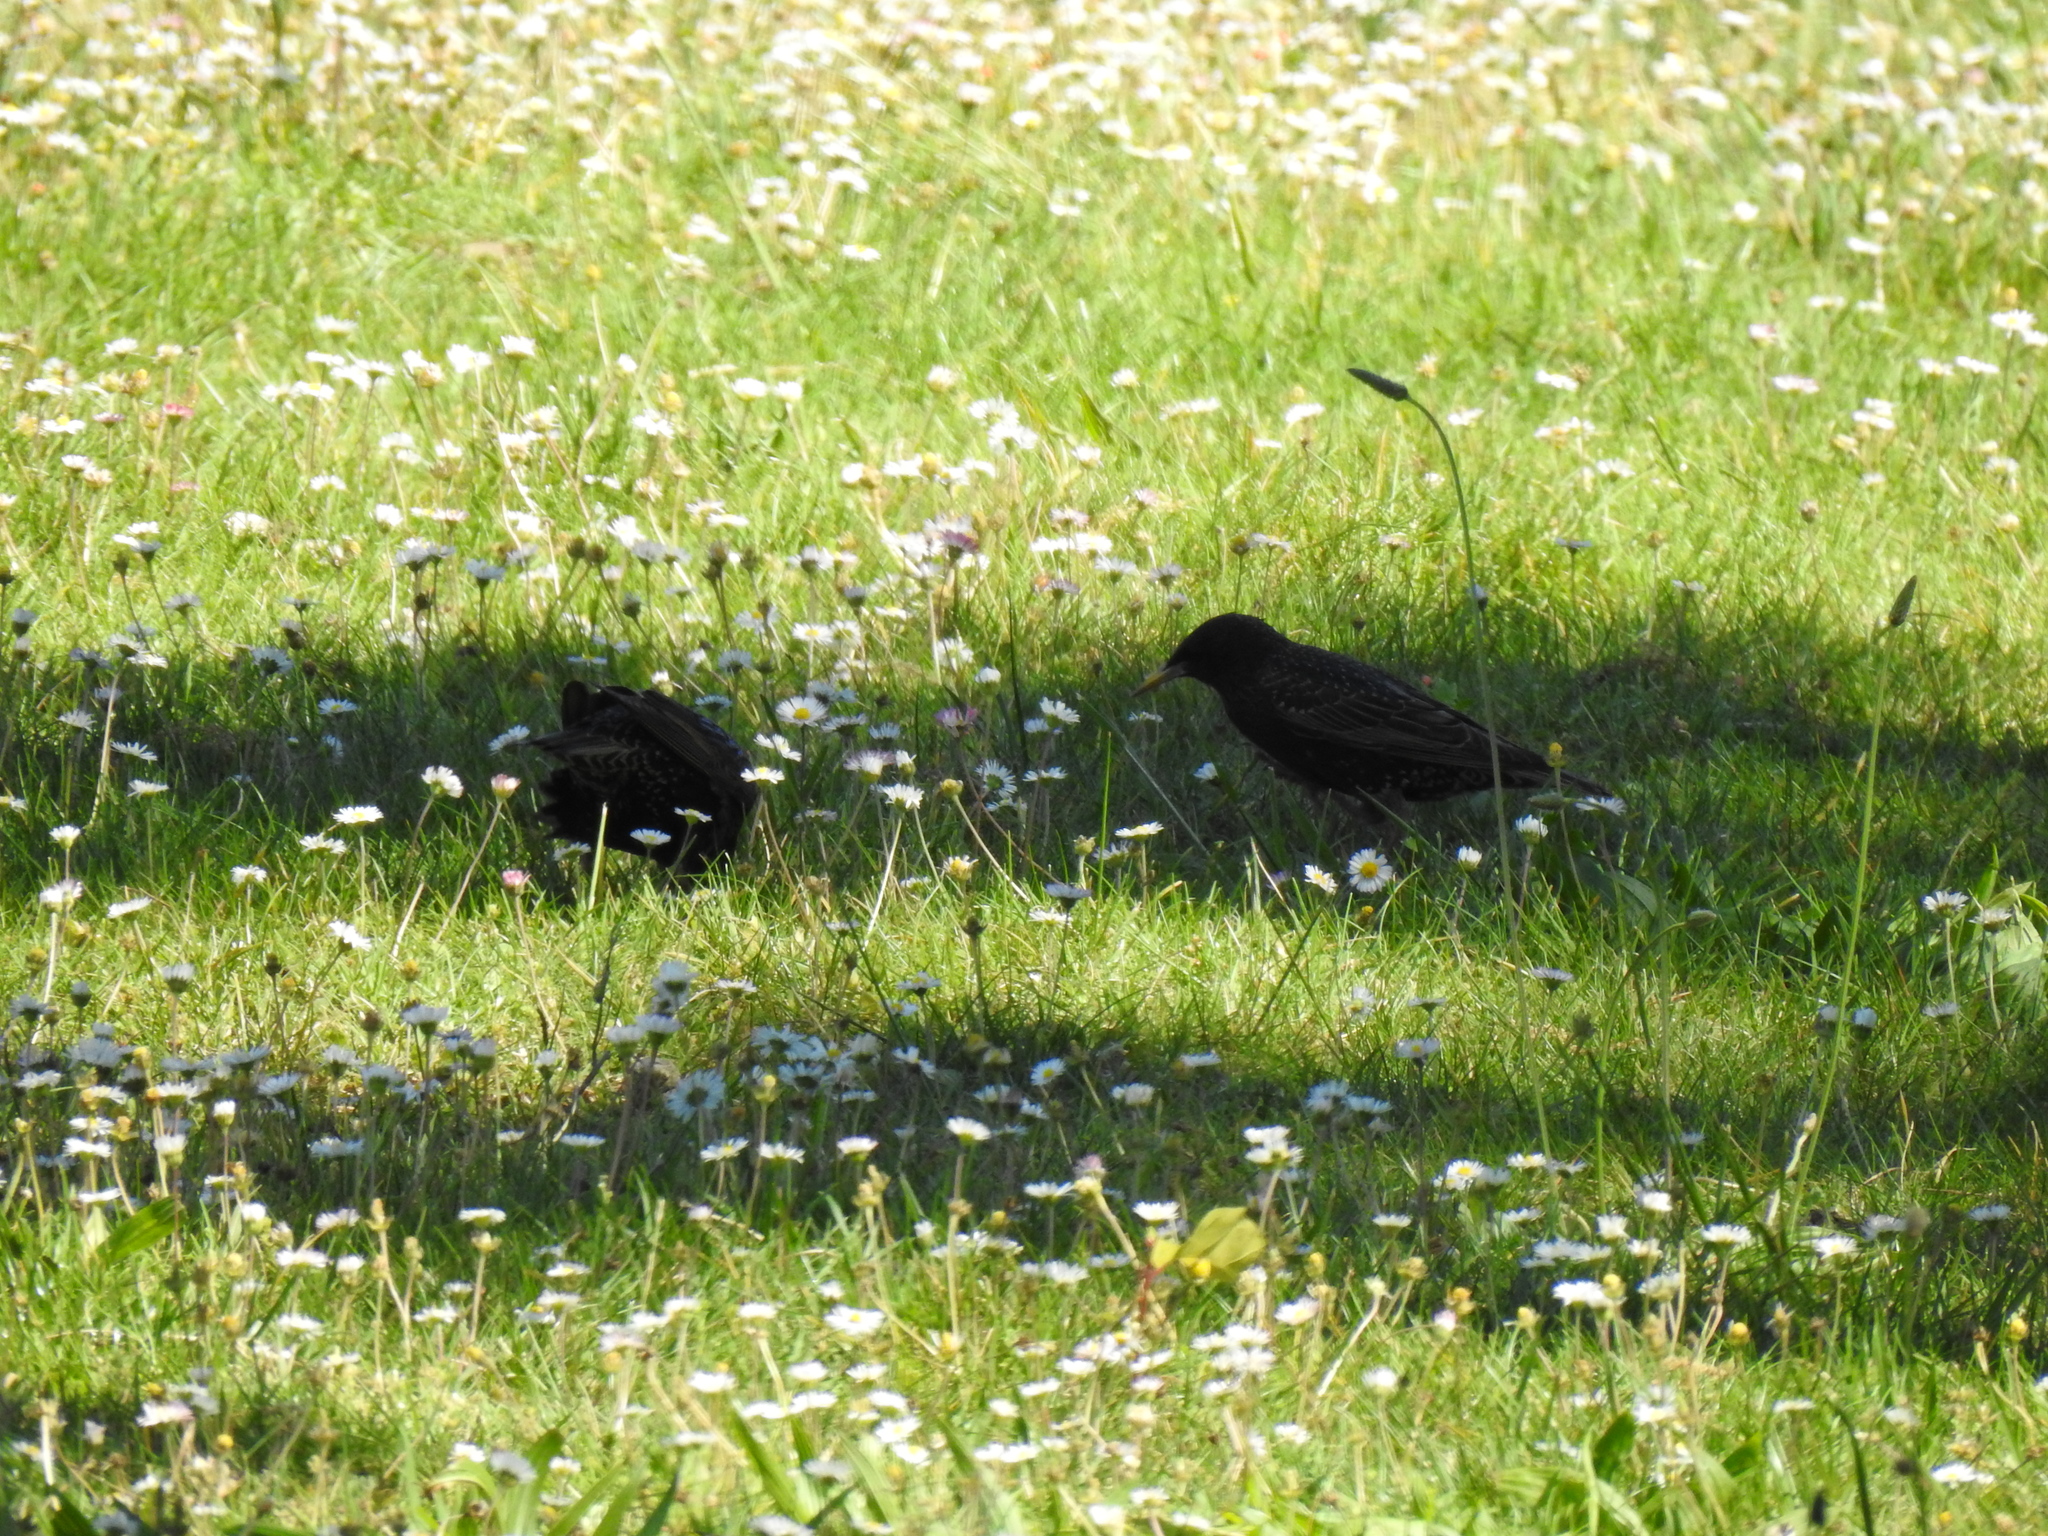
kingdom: Animalia
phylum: Chordata
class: Aves
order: Passeriformes
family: Sturnidae
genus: Sturnus
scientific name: Sturnus vulgaris
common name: Common starling
